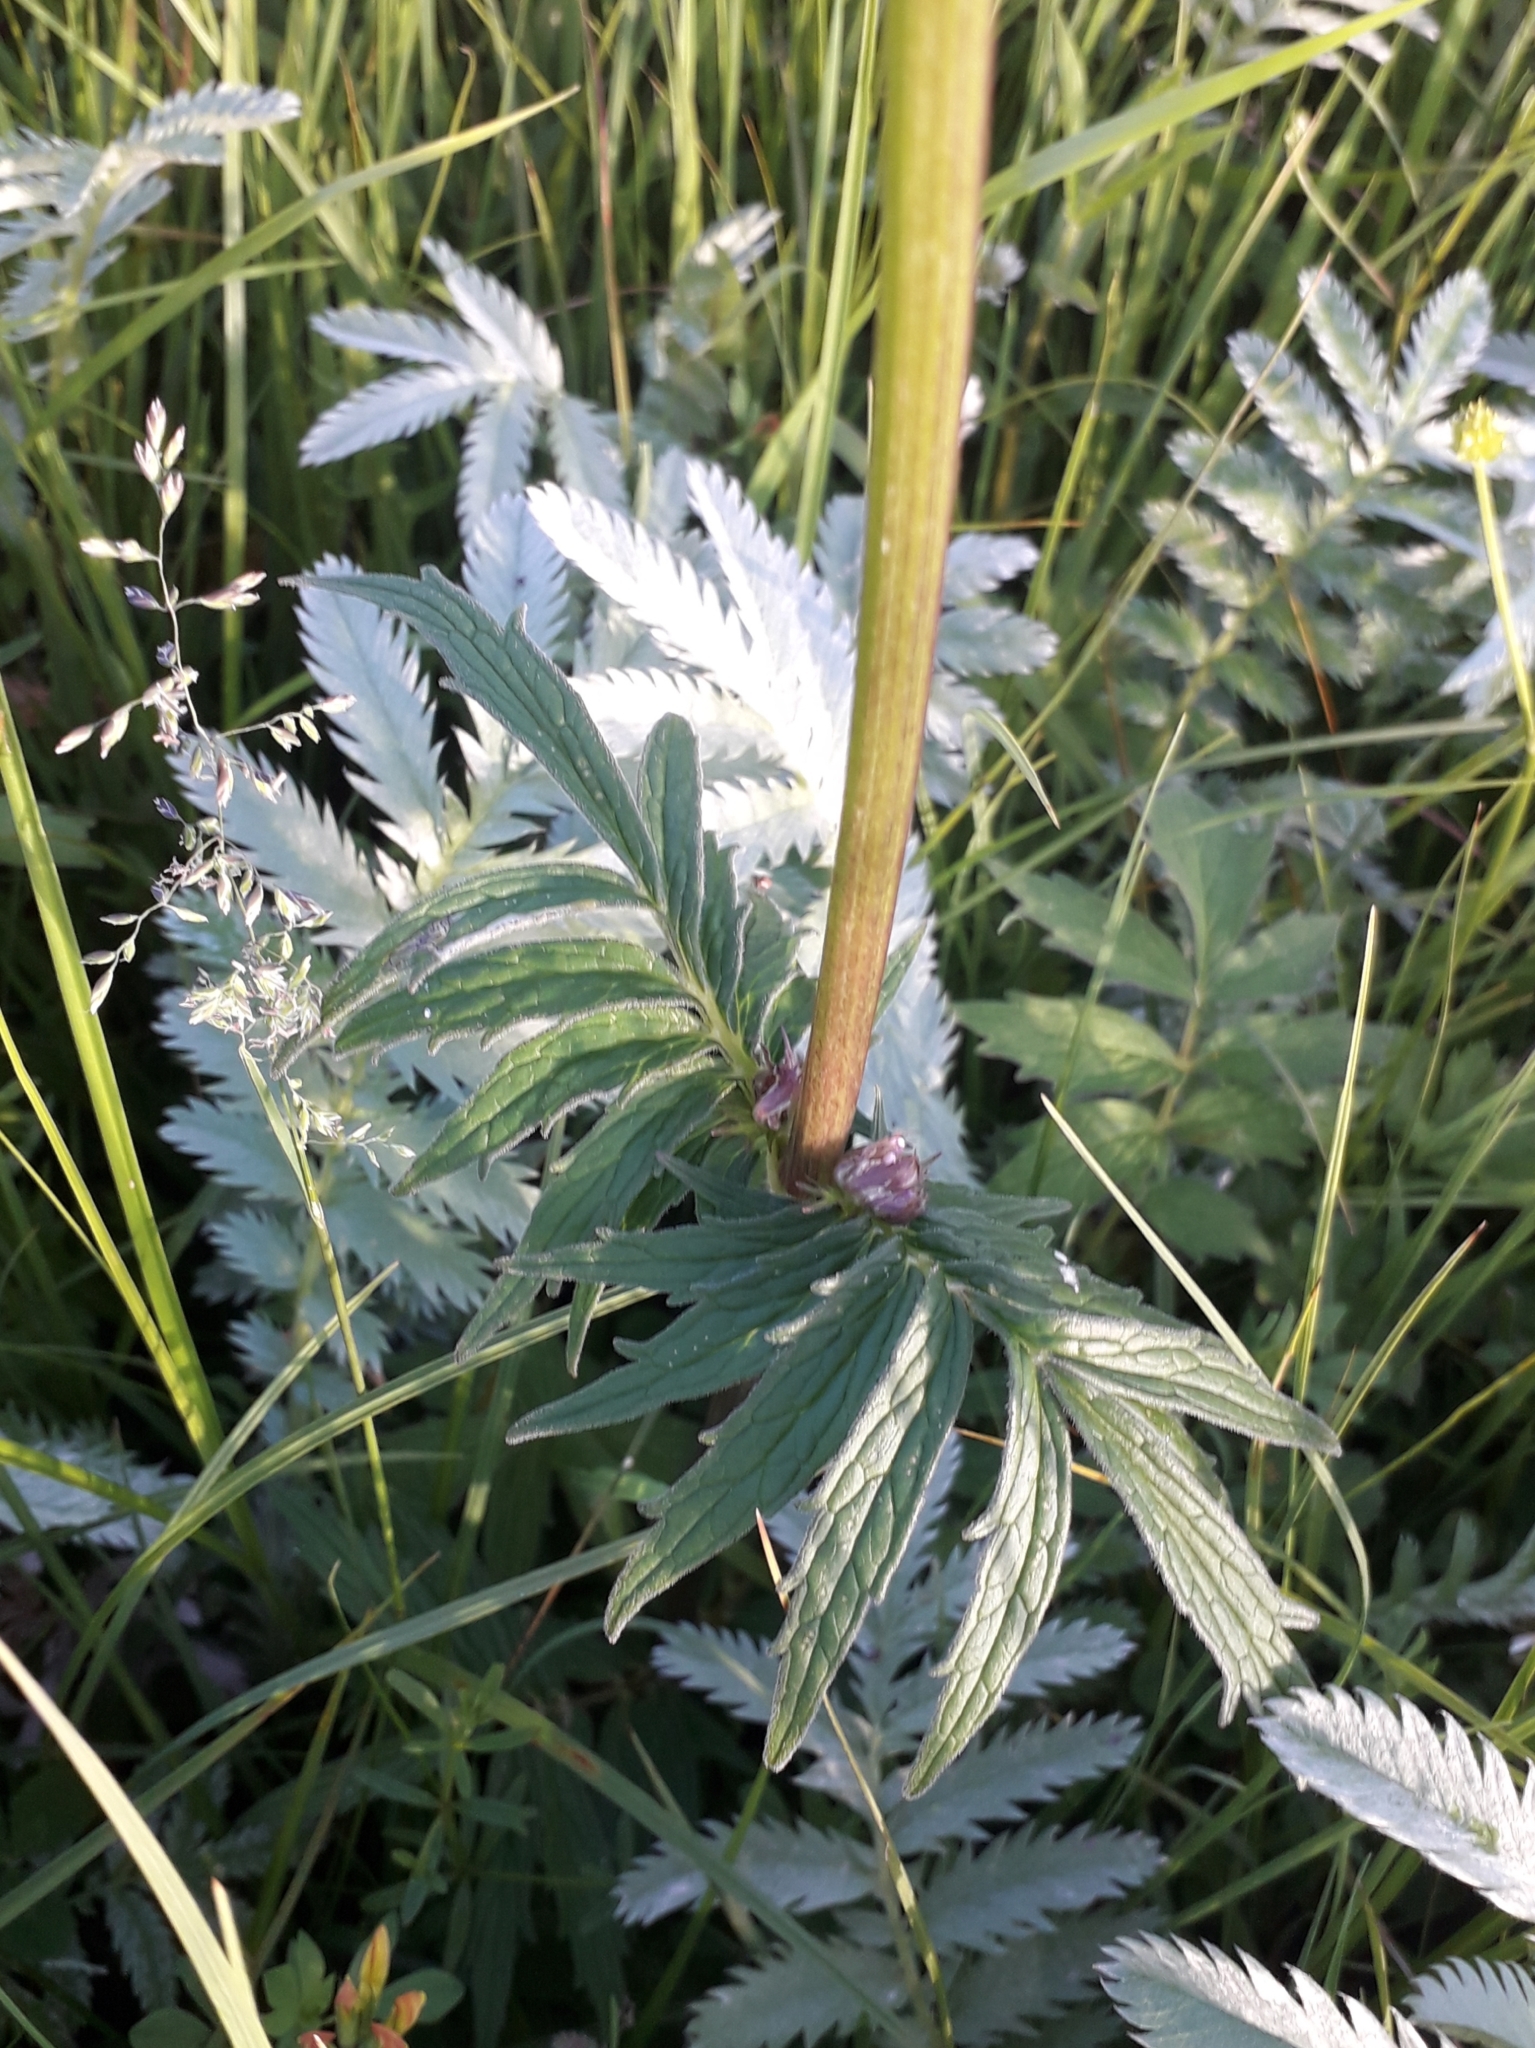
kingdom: Plantae
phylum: Tracheophyta
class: Magnoliopsida
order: Dipsacales
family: Caprifoliaceae
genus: Valeriana
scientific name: Valeriana officinalis
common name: Common valerian
